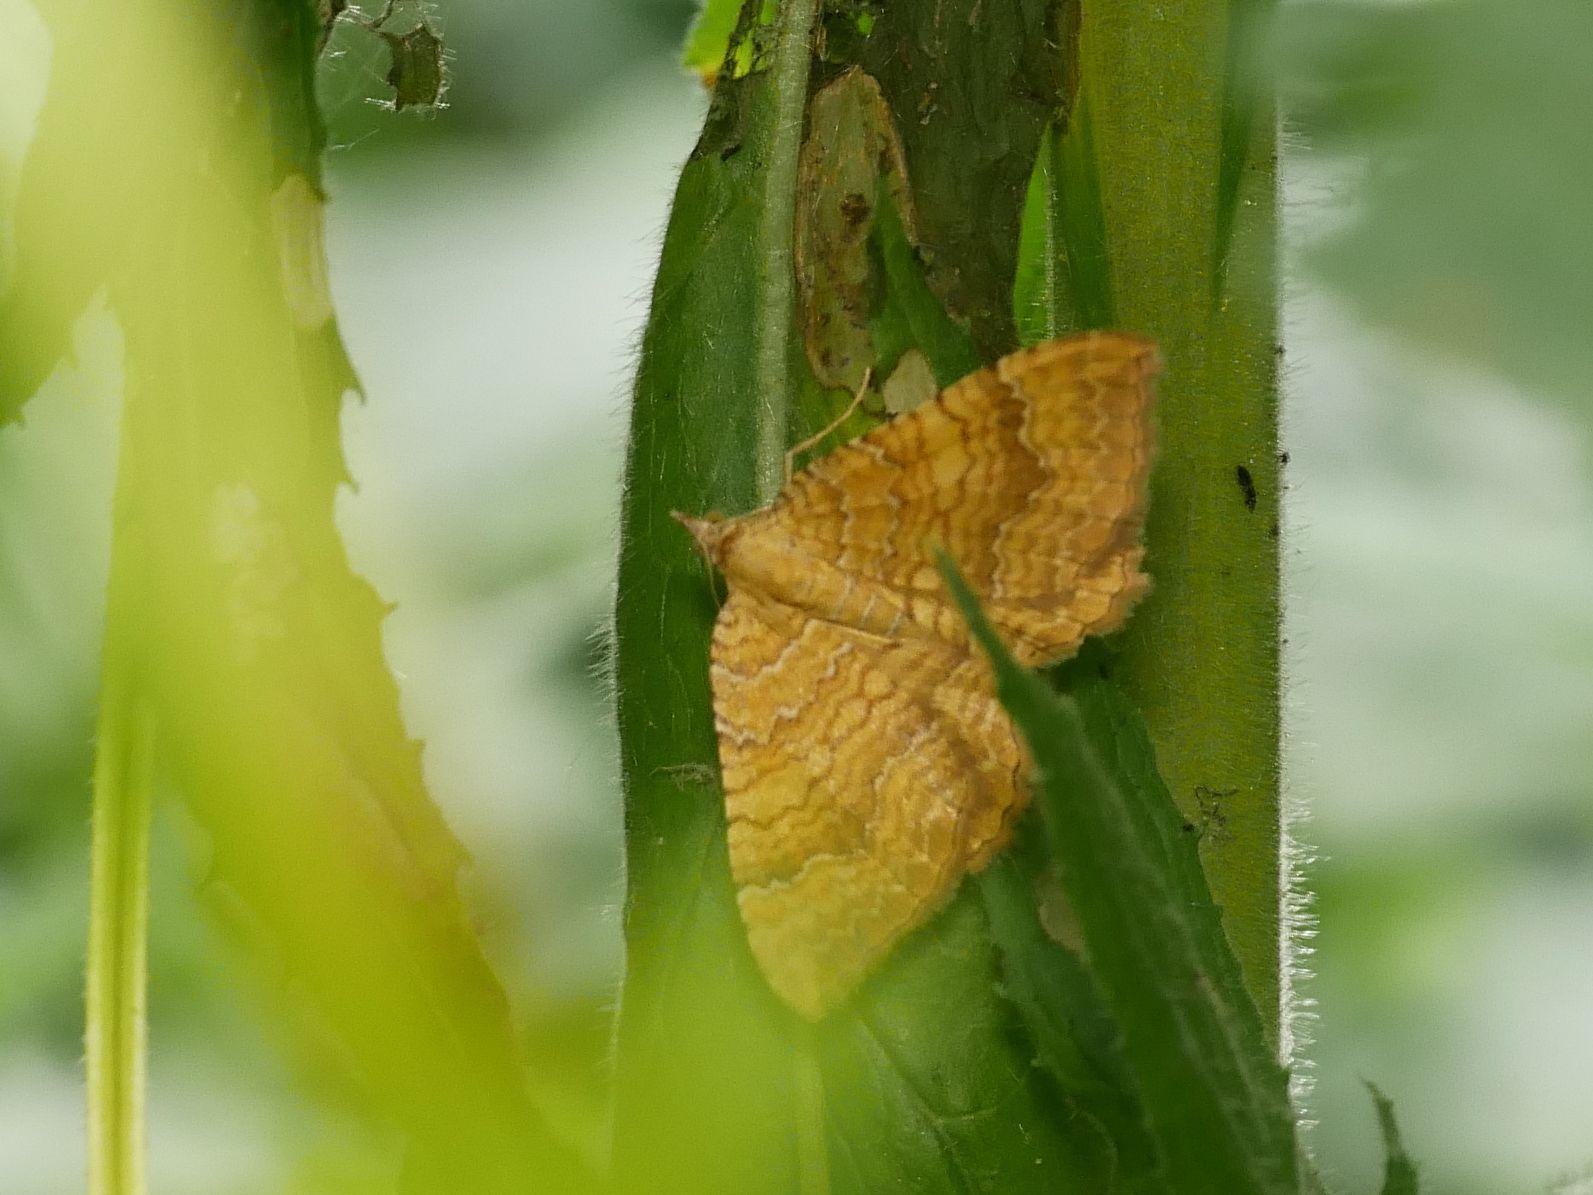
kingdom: Animalia
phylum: Arthropoda
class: Insecta
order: Lepidoptera
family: Geometridae
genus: Camptogramma
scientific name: Camptogramma bilineata
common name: Yellow shell
